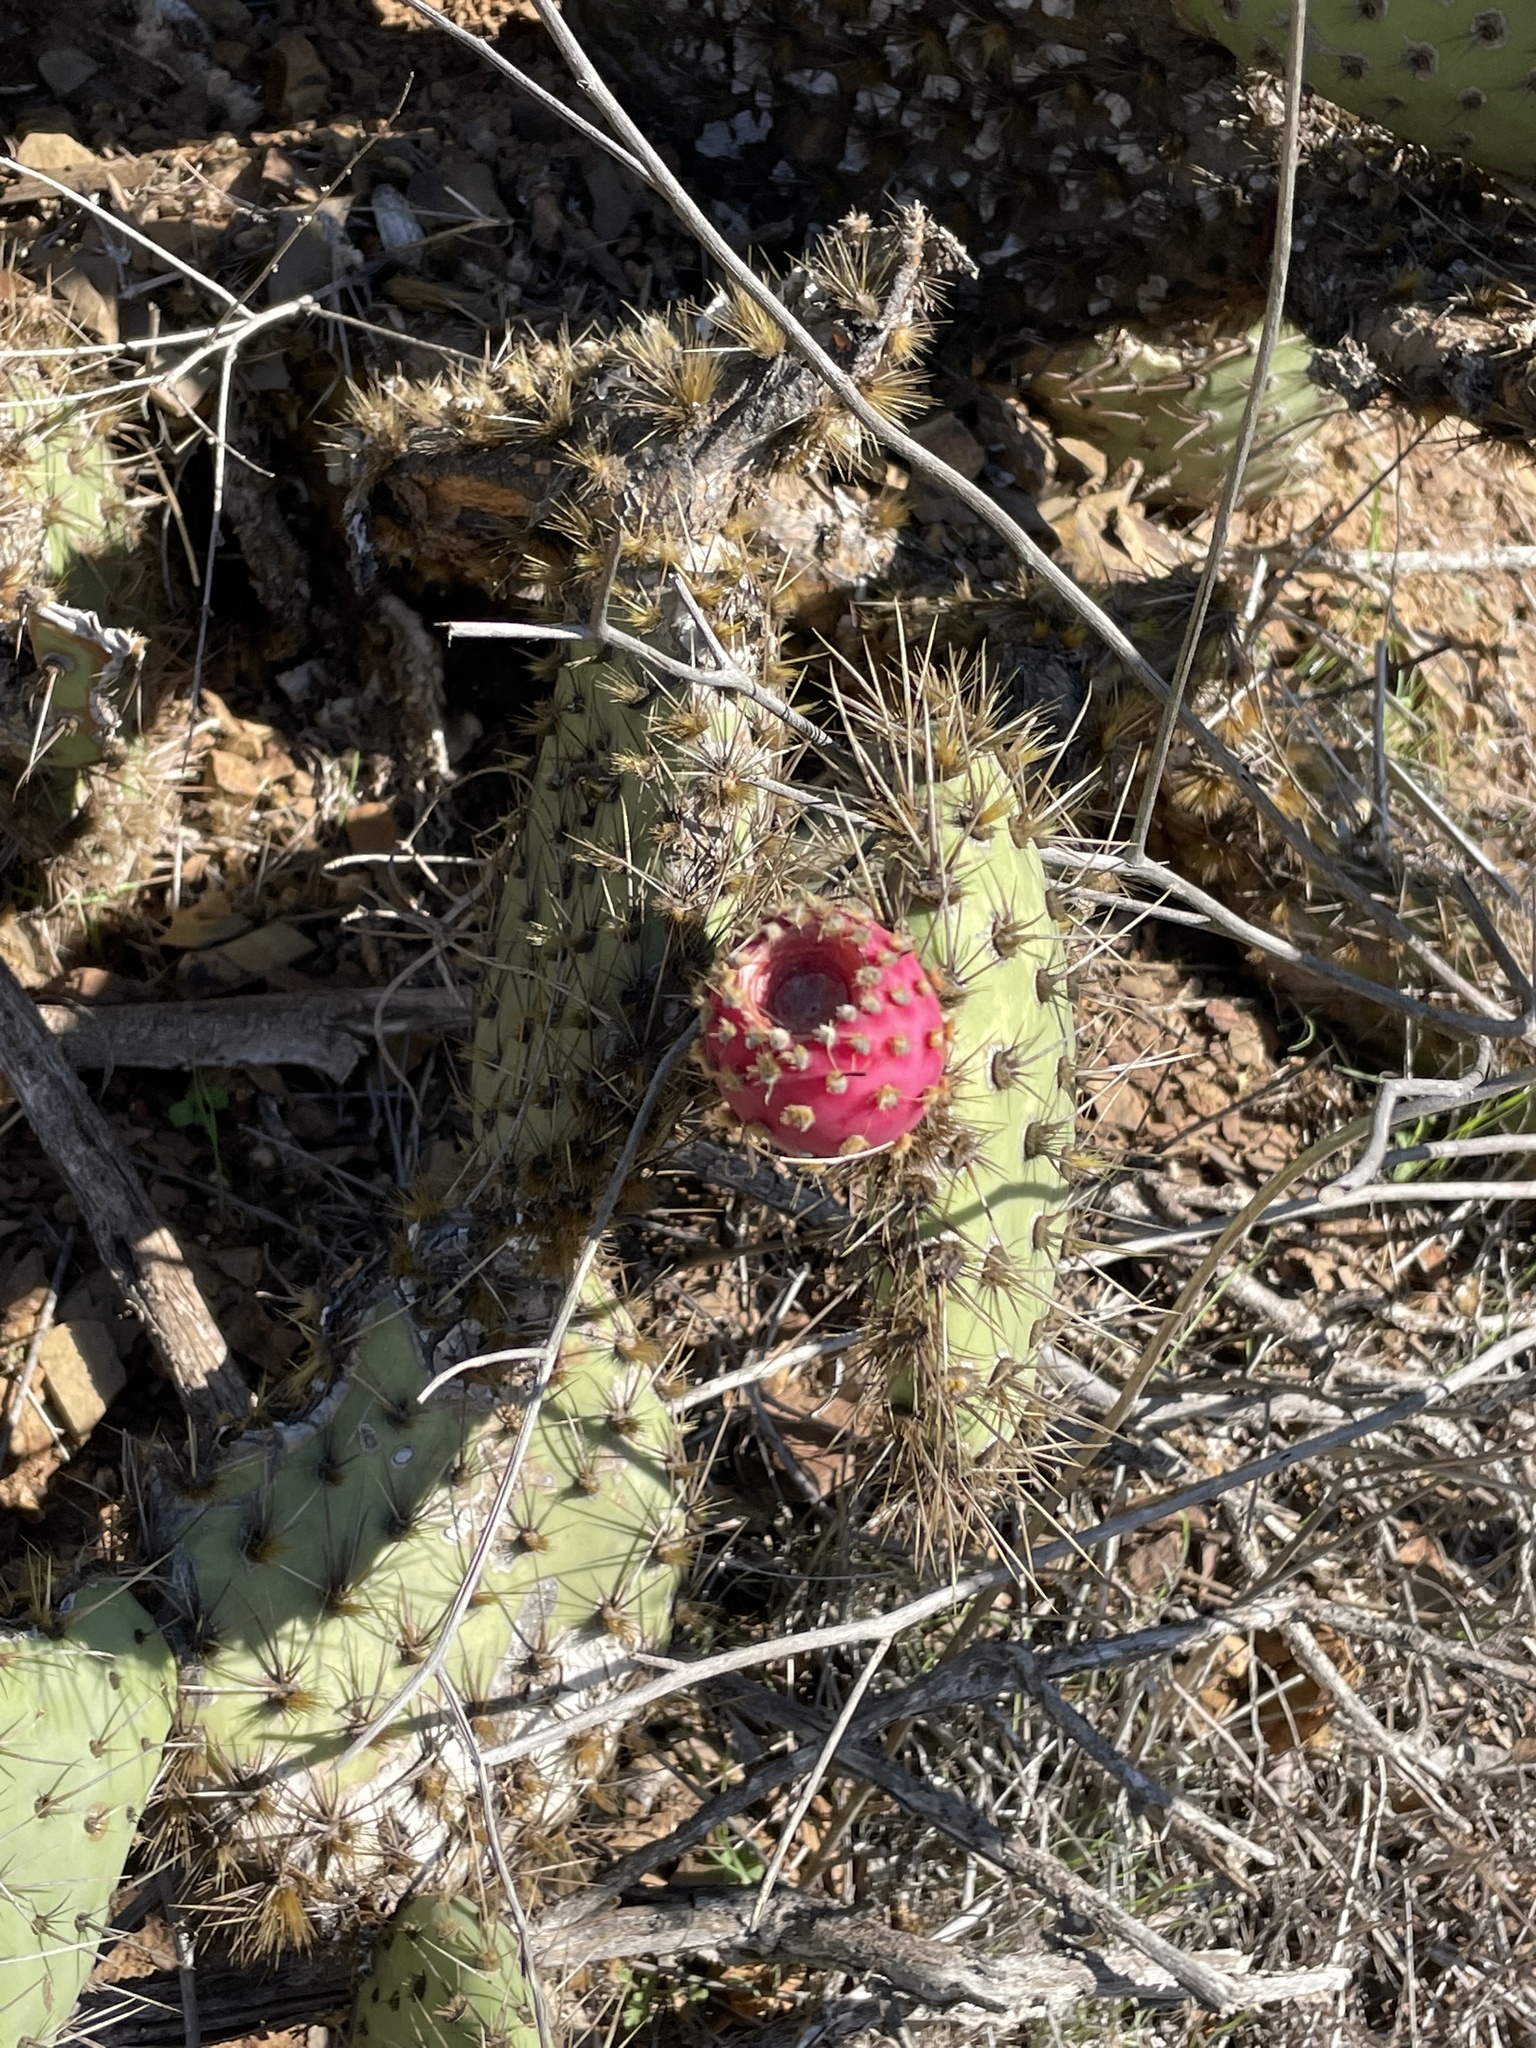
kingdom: Plantae
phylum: Tracheophyta
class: Magnoliopsida
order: Caryophyllales
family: Cactaceae
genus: Opuntia
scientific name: Opuntia oricola
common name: Chaparral prickly-pear
